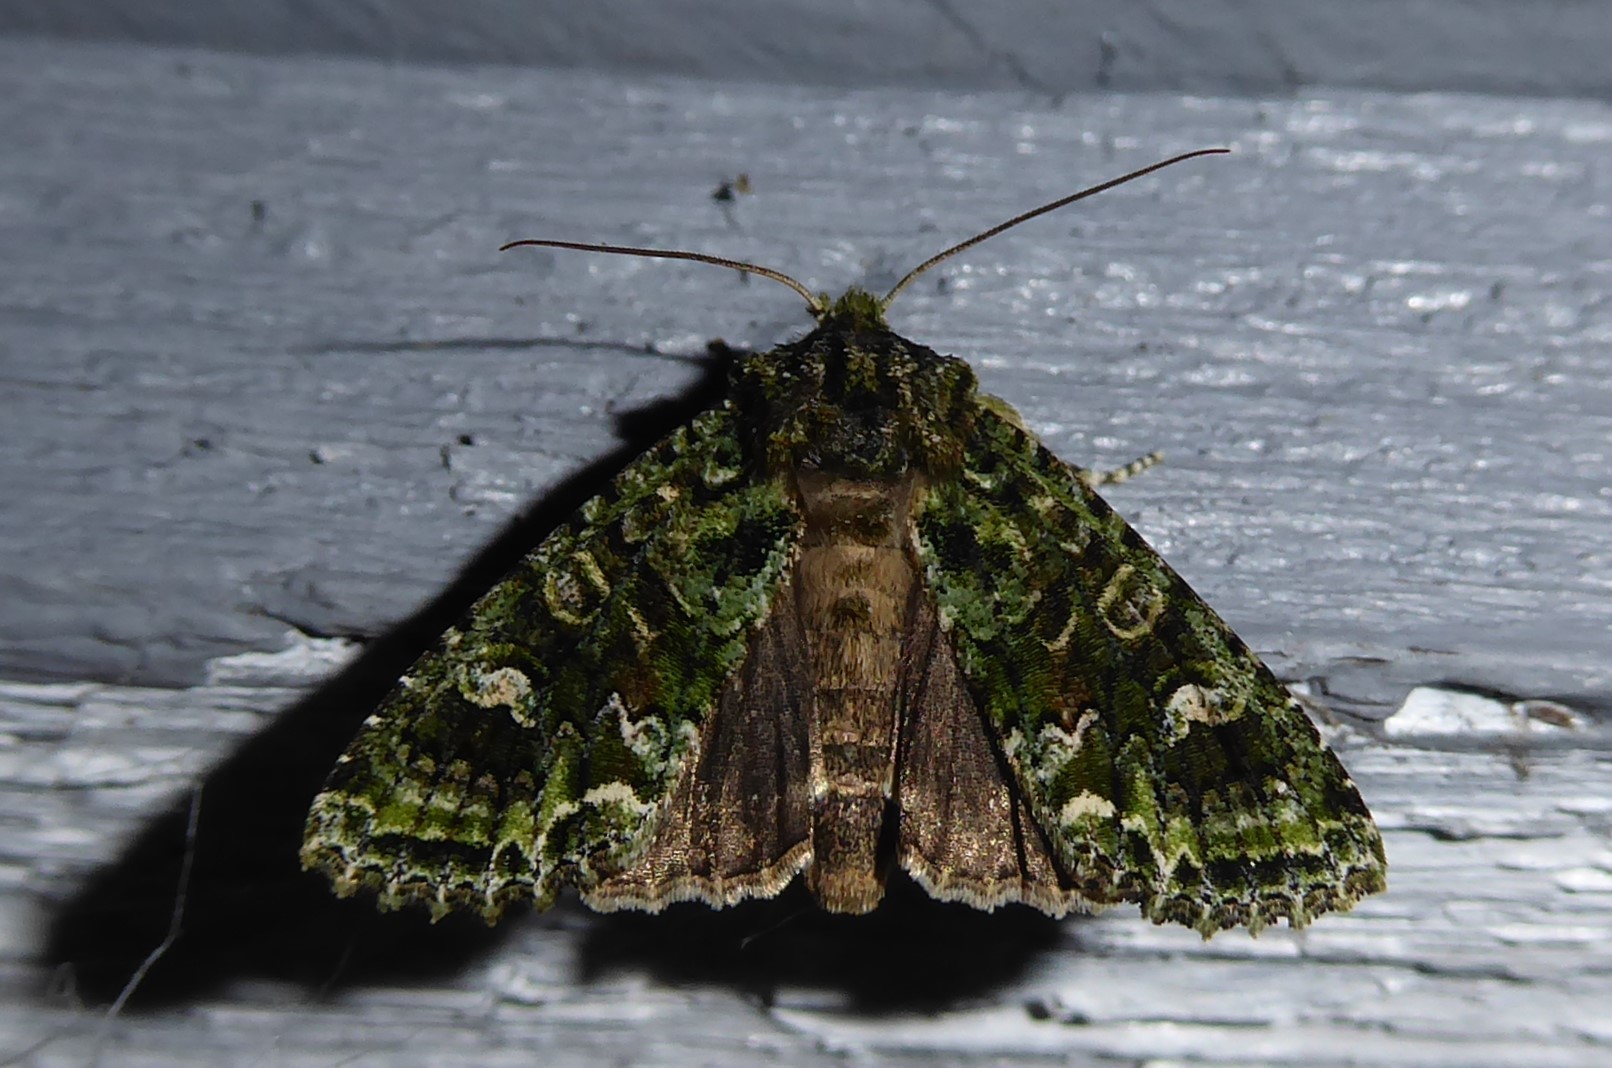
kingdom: Animalia
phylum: Arthropoda
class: Insecta
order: Lepidoptera
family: Noctuidae
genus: Ichneutica
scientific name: Ichneutica
